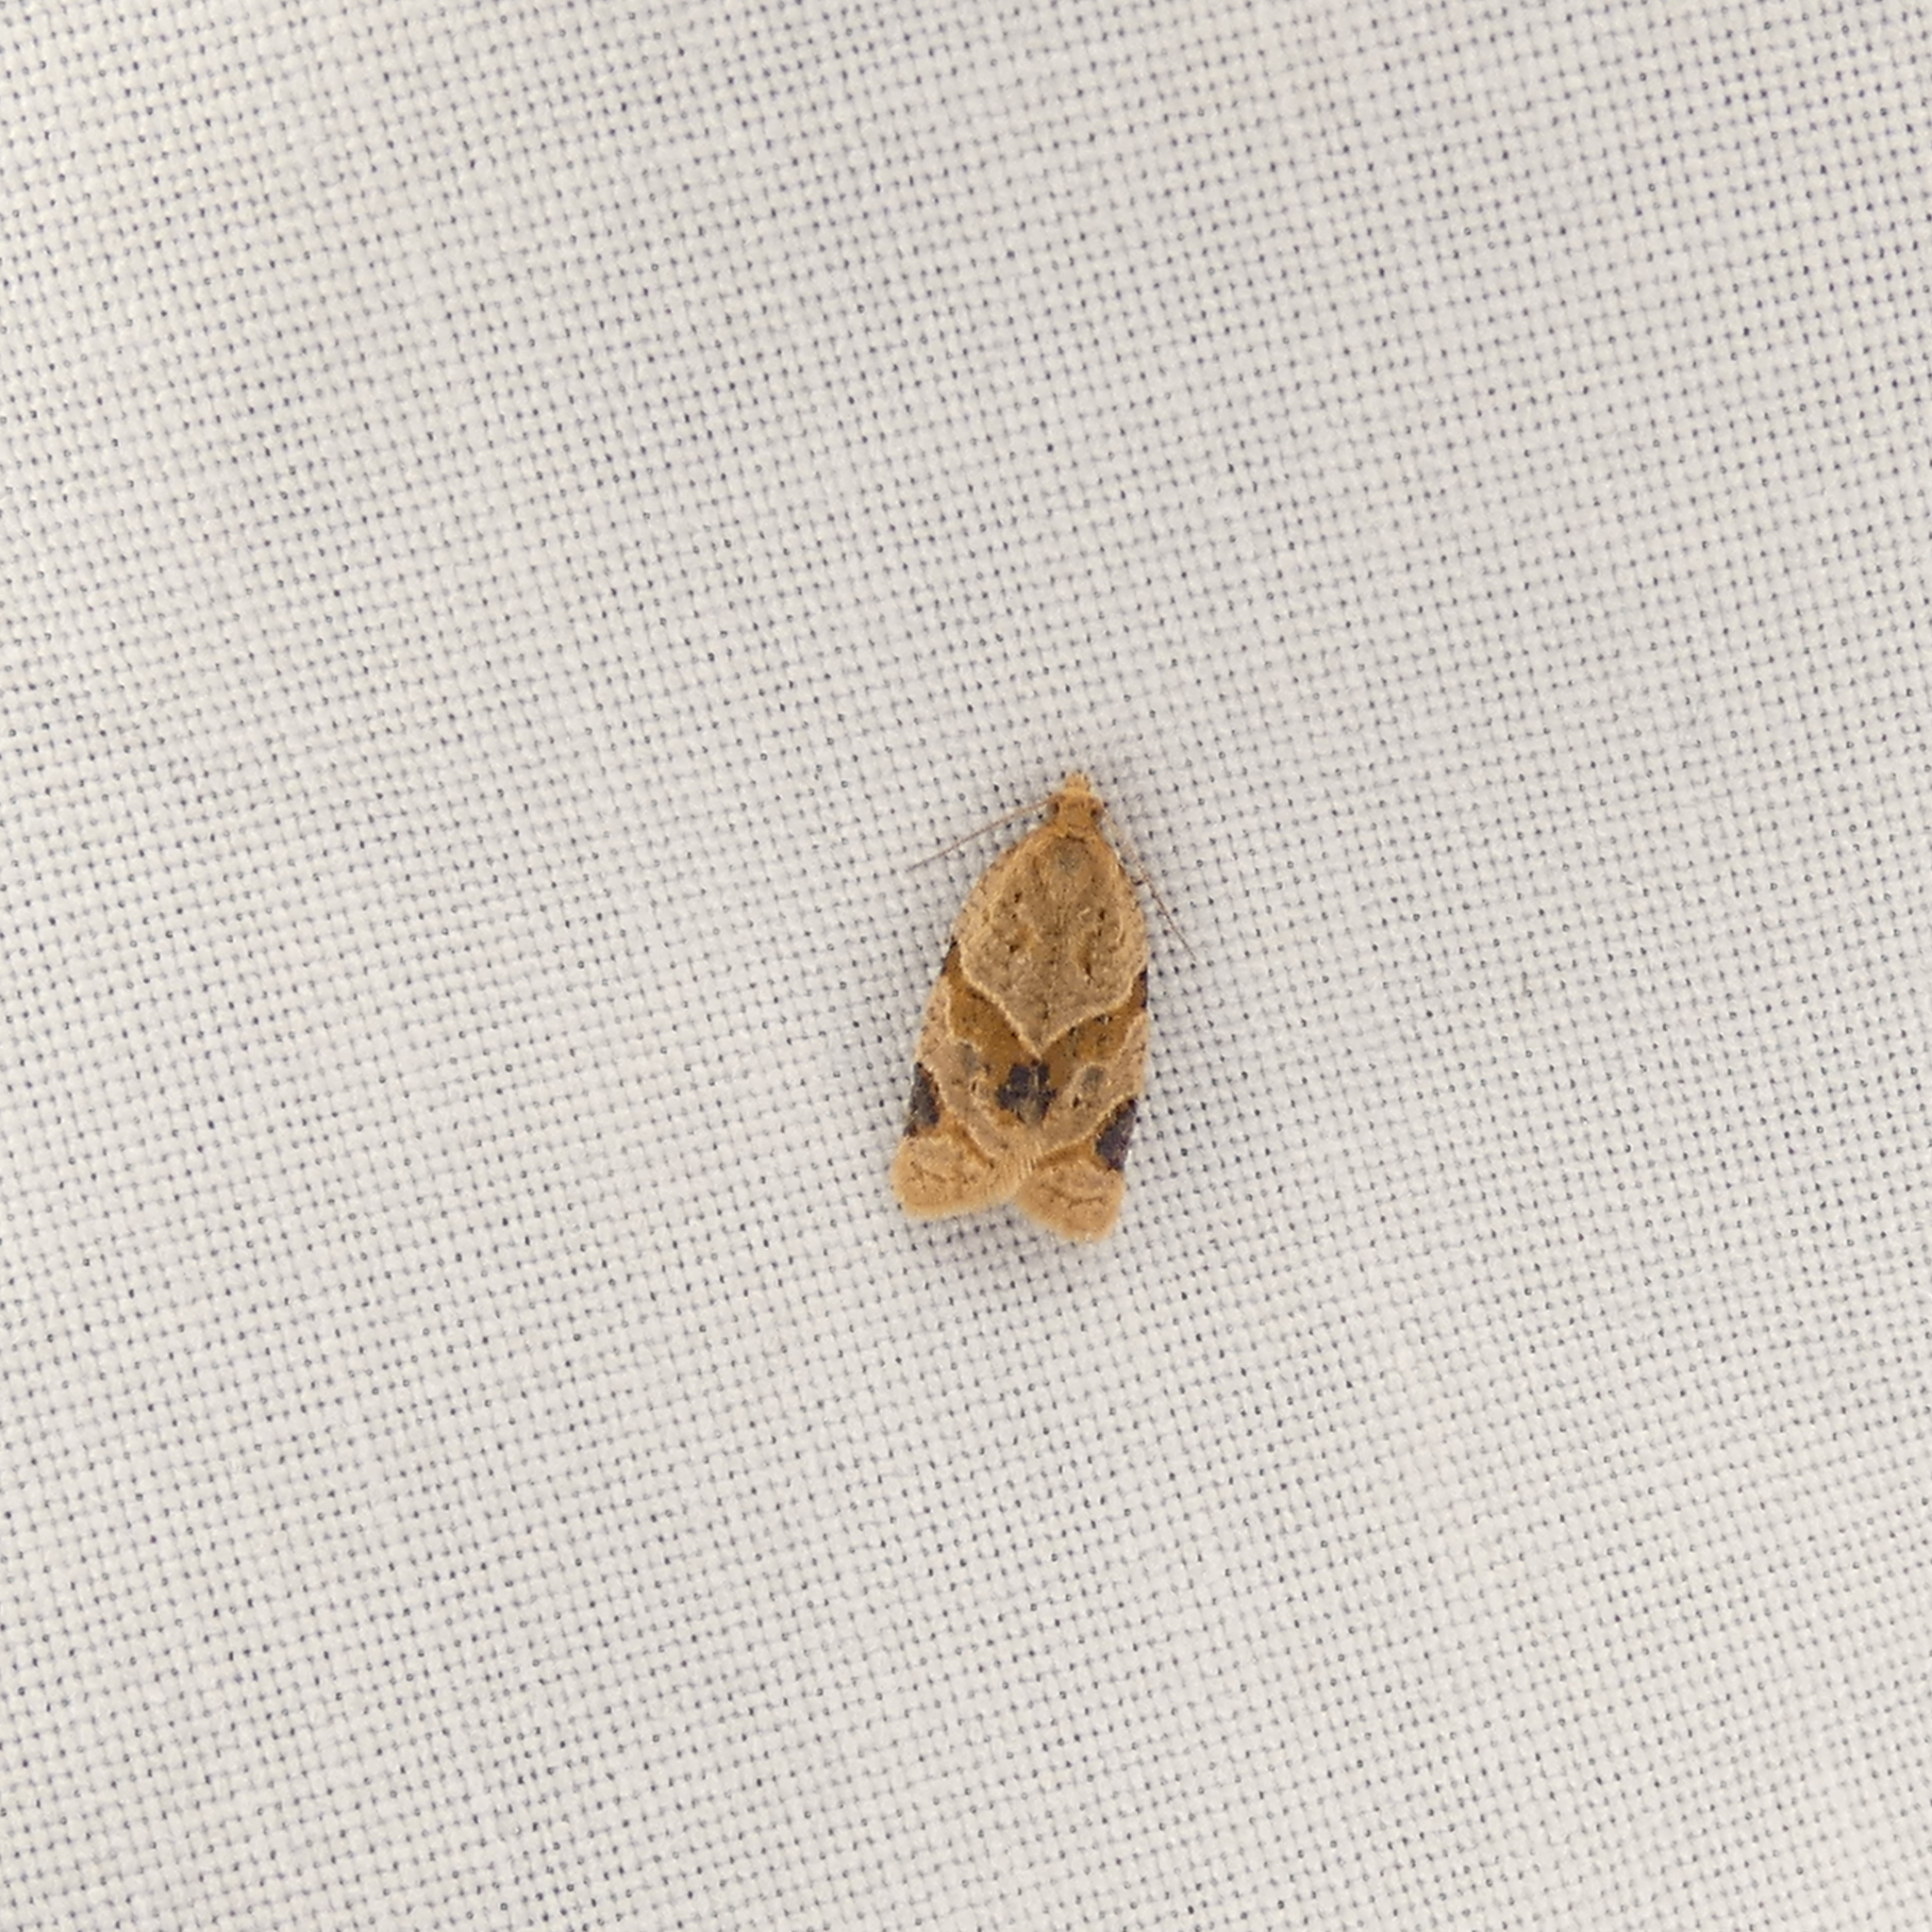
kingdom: Animalia
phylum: Arthropoda
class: Insecta
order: Lepidoptera
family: Tortricidae
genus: Clepsis
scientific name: Clepsis peritana
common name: Garden tortrix
